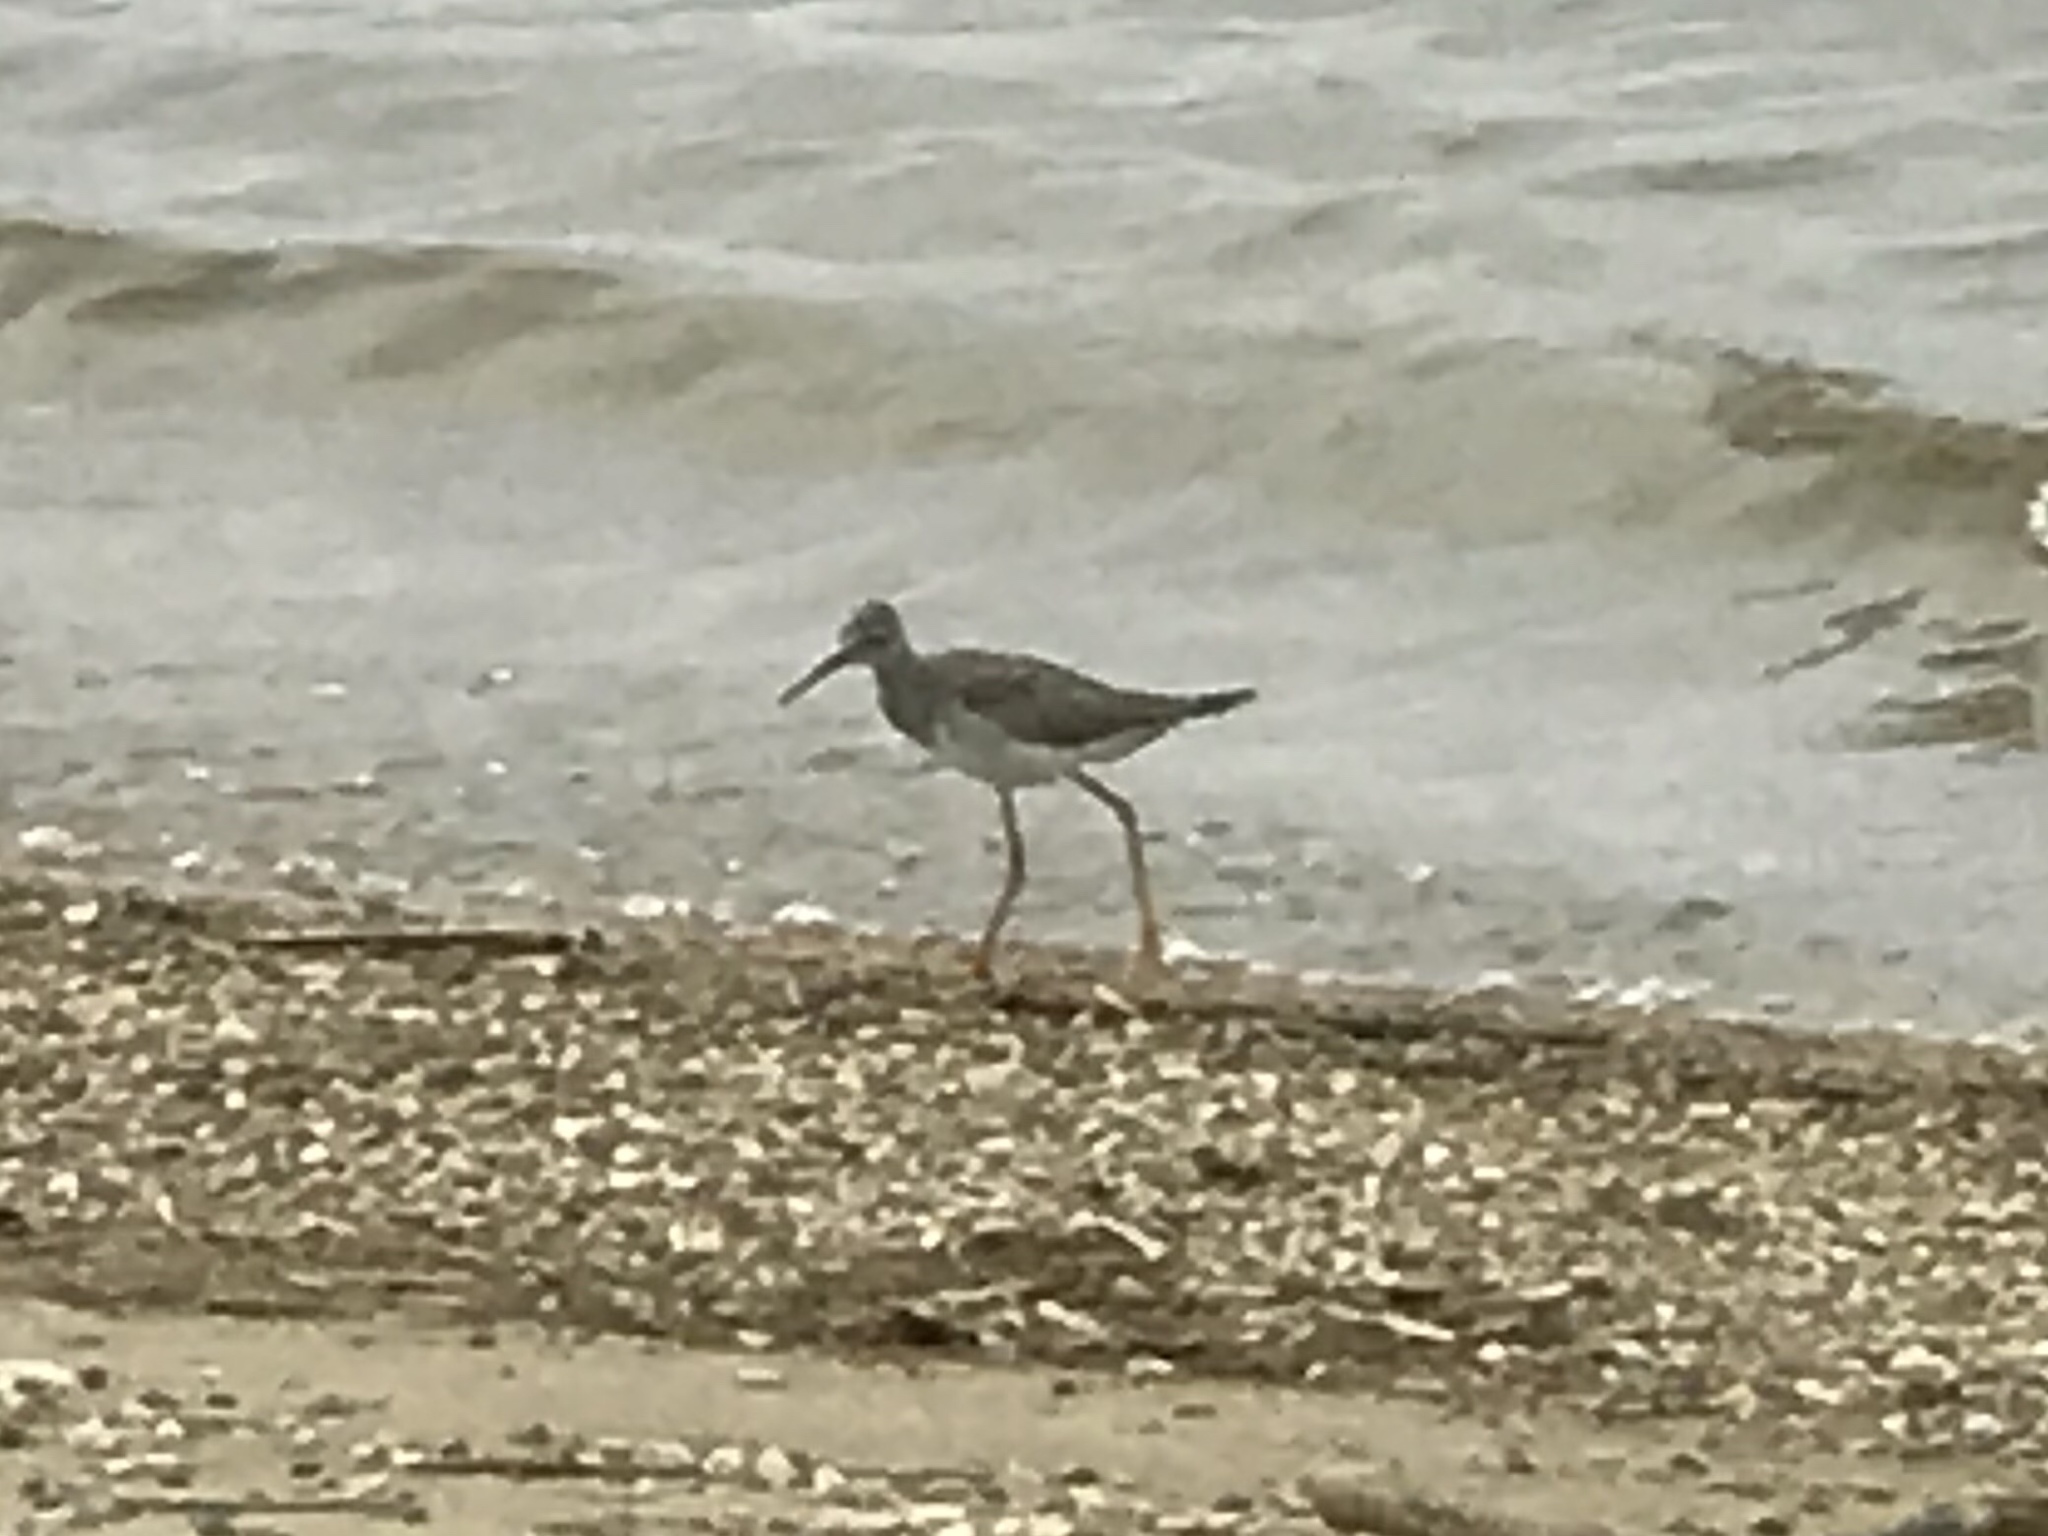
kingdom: Animalia
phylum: Chordata
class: Aves
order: Charadriiformes
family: Scolopacidae
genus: Tringa
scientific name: Tringa flavipes
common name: Lesser yellowlegs
